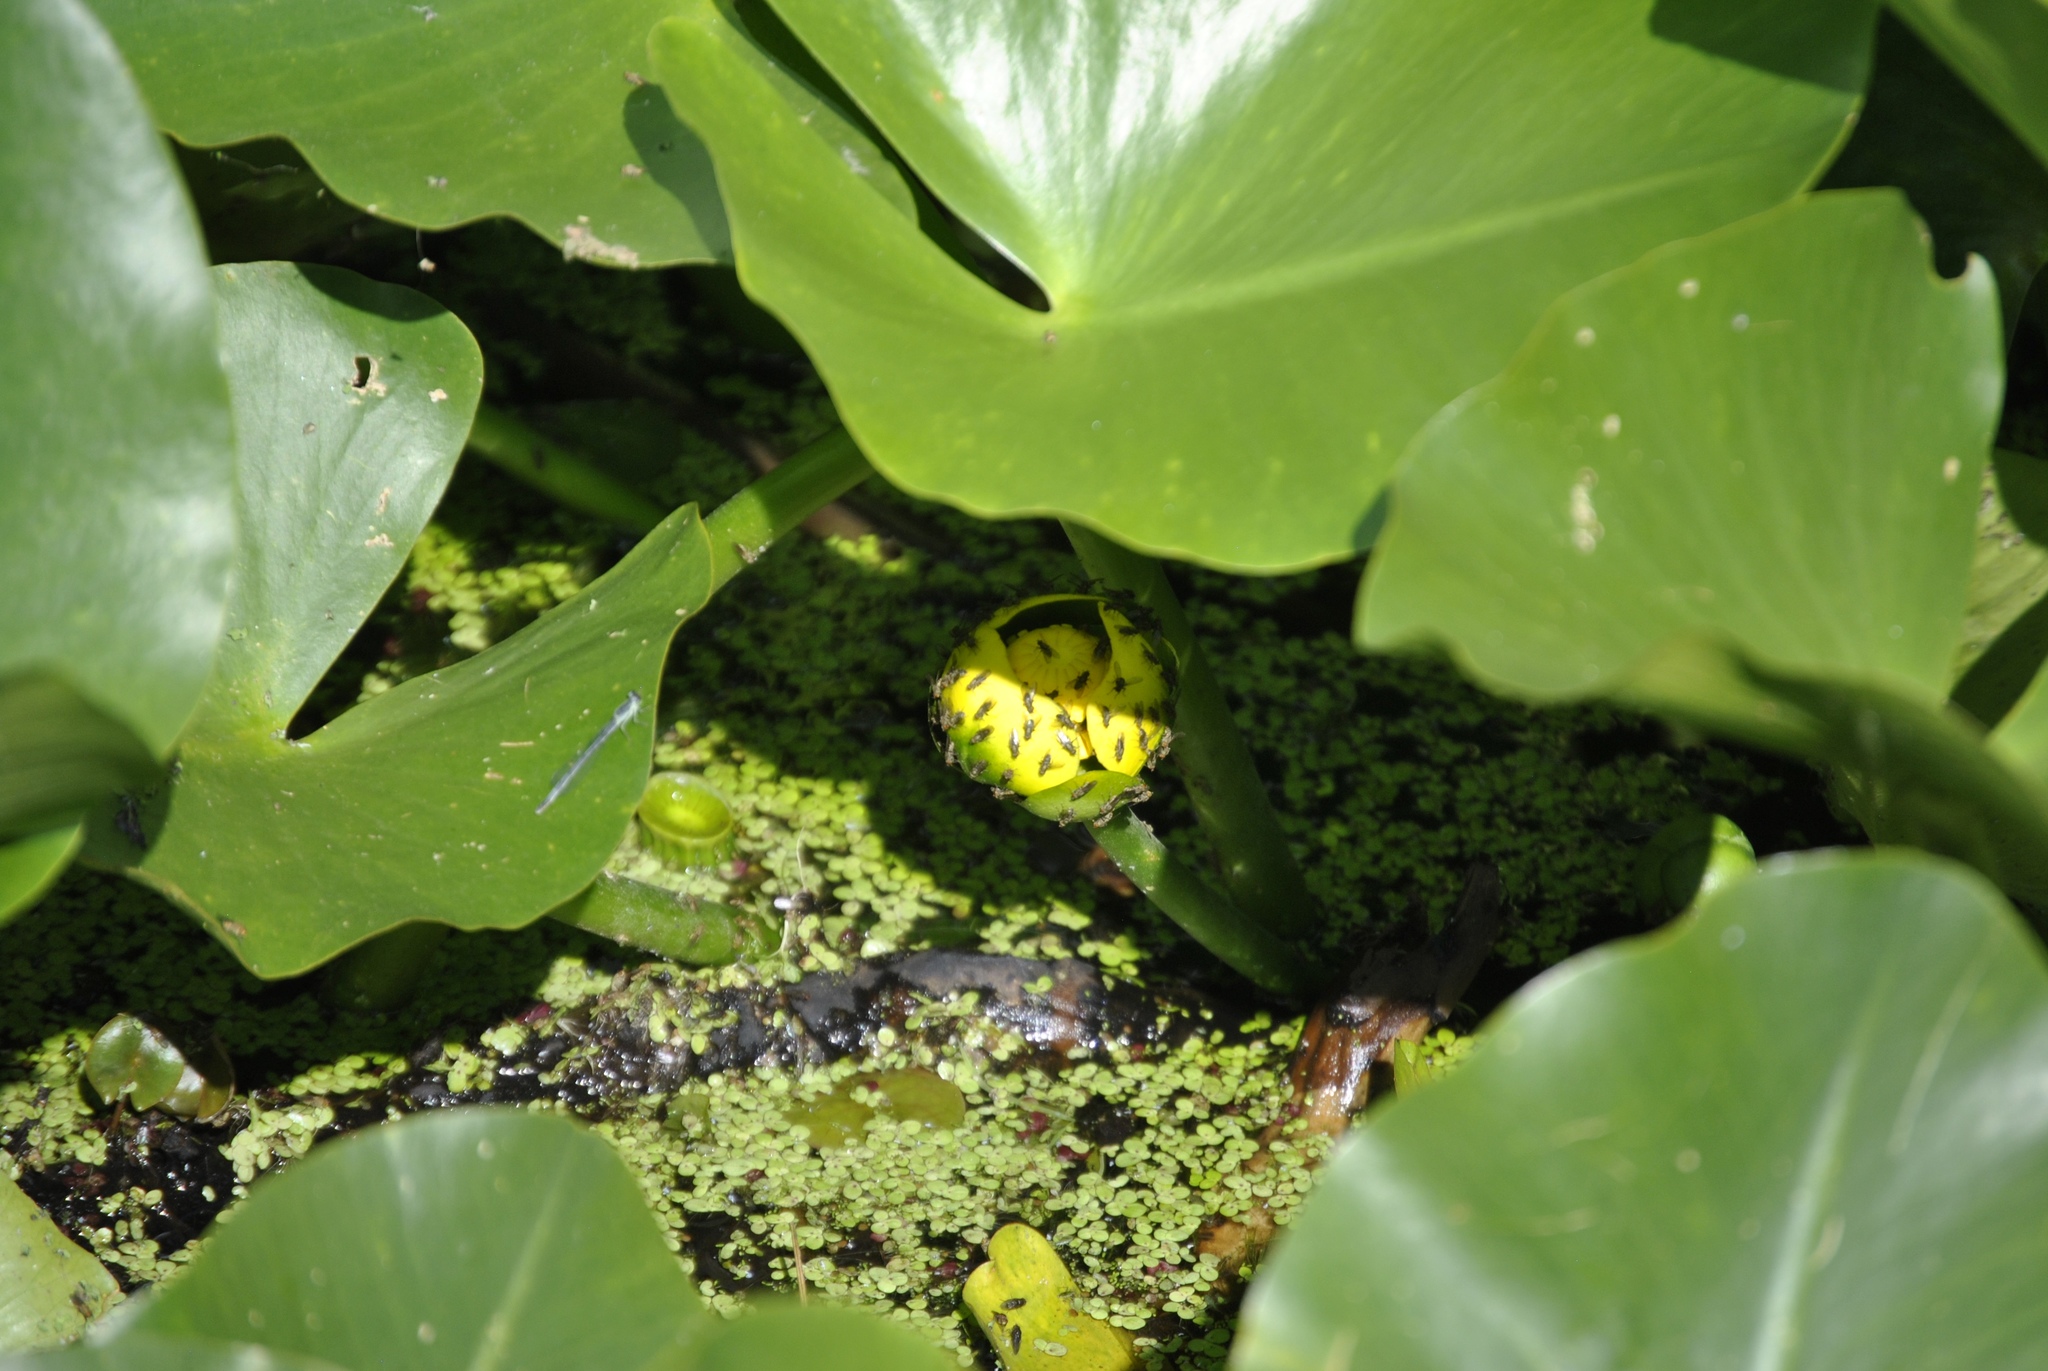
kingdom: Plantae
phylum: Tracheophyta
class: Magnoliopsida
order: Nymphaeales
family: Nymphaeaceae
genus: Nuphar
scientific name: Nuphar advena
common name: Spatter-dock
